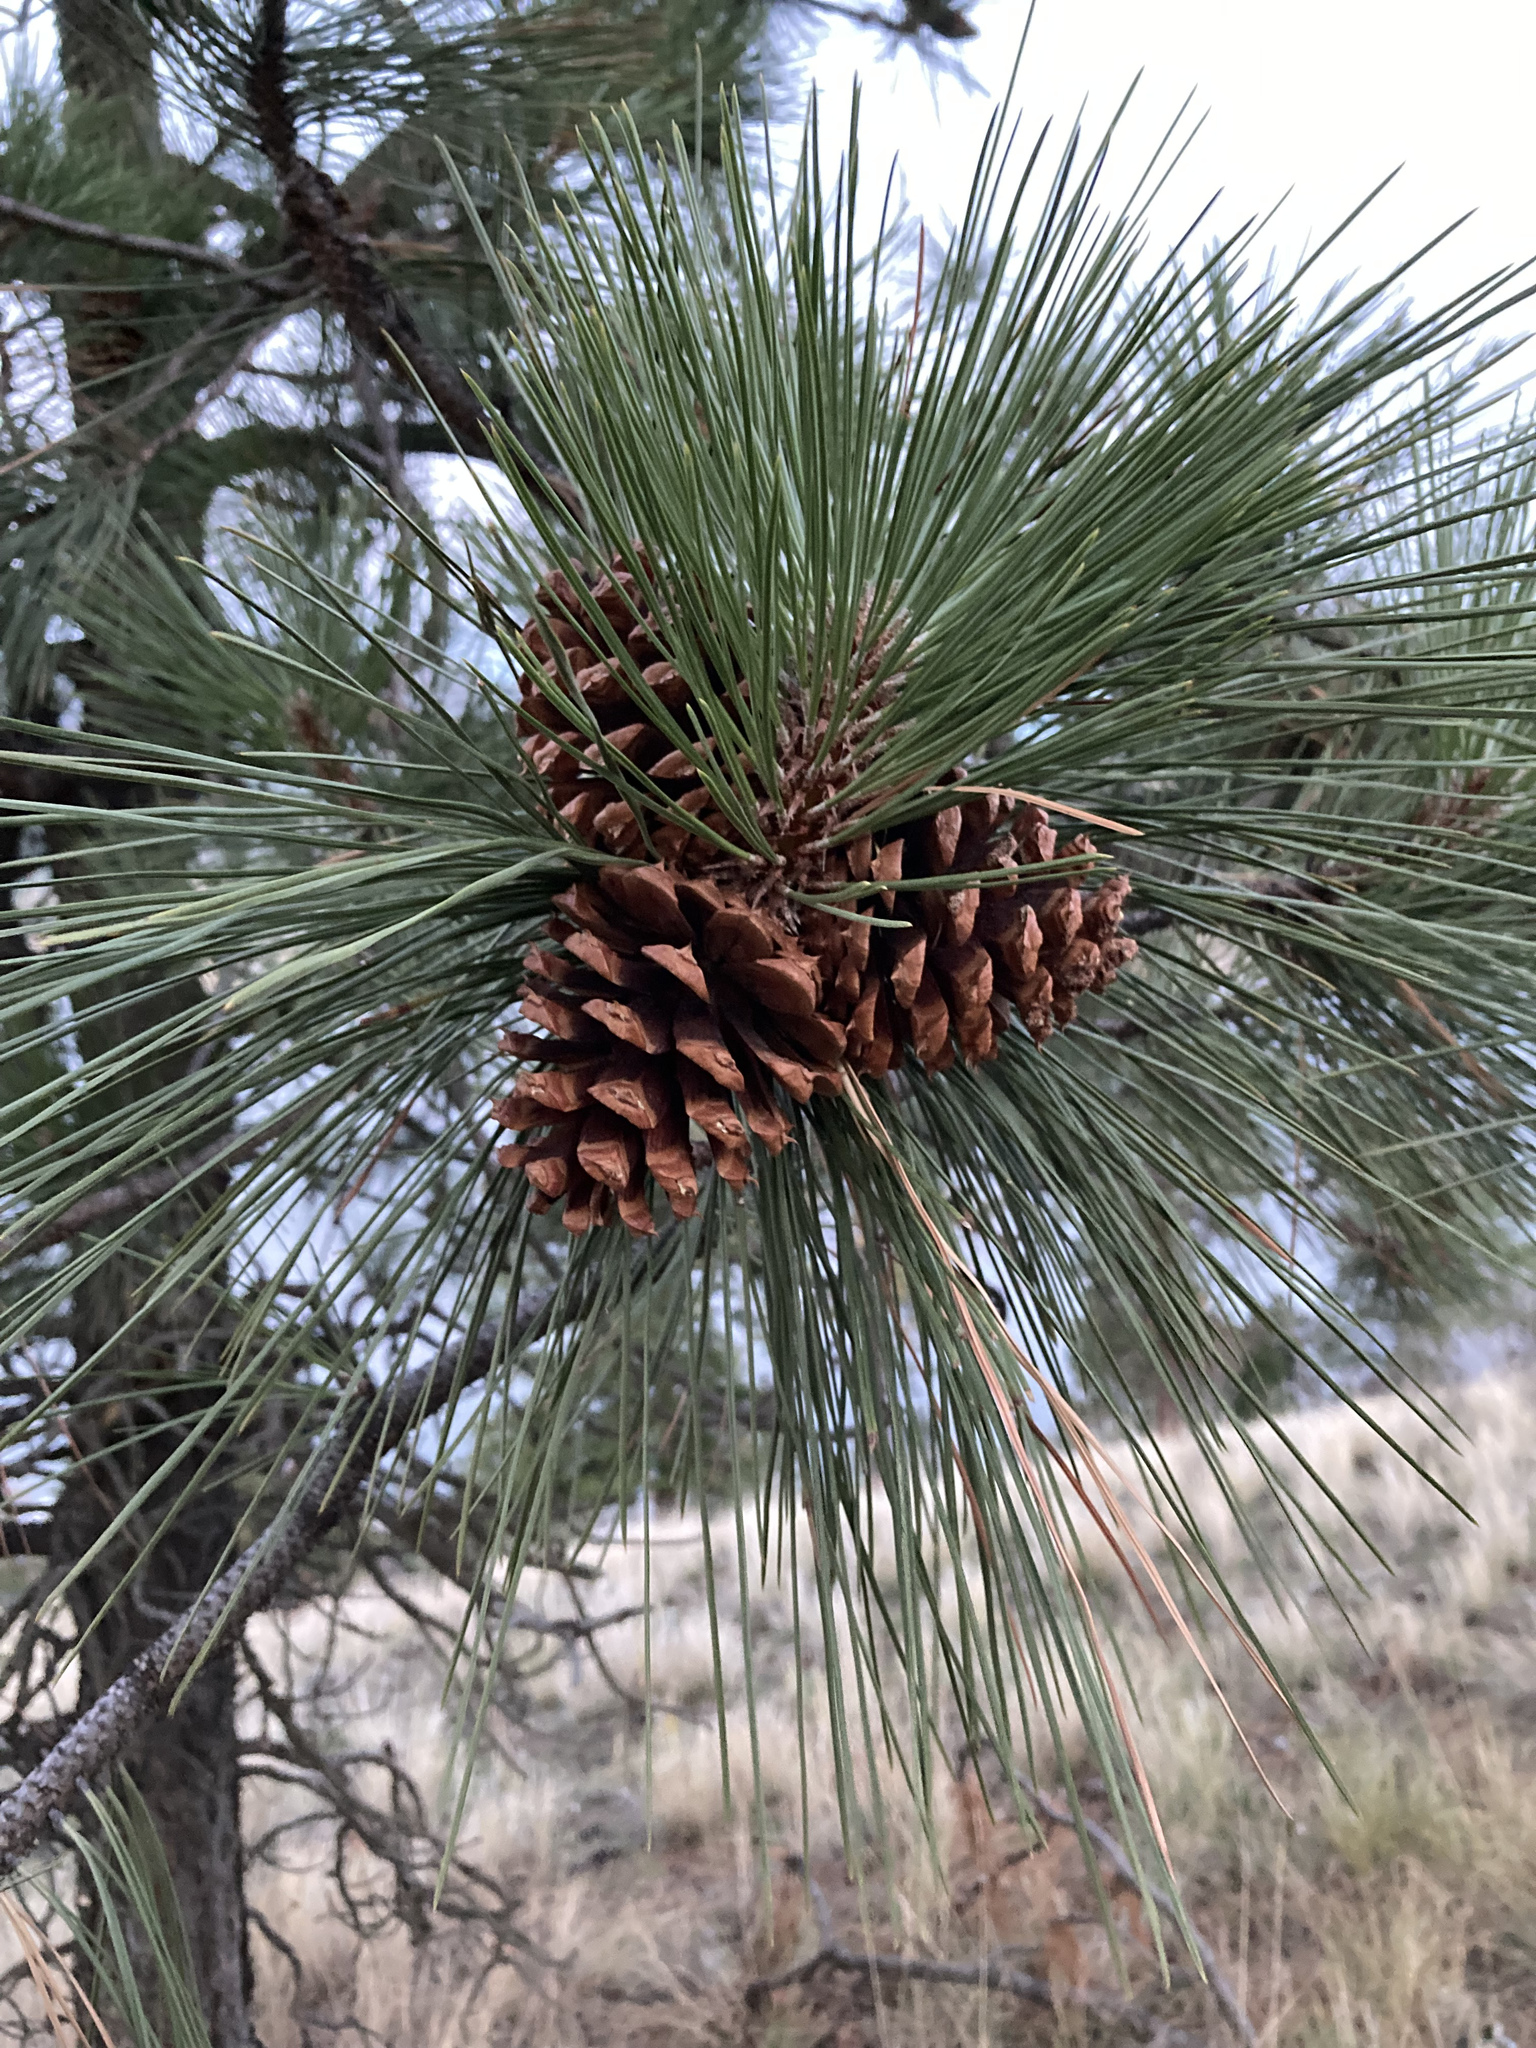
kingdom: Plantae
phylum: Tracheophyta
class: Pinopsida
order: Pinales
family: Pinaceae
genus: Pinus
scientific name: Pinus ponderosa
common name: Western yellow-pine
